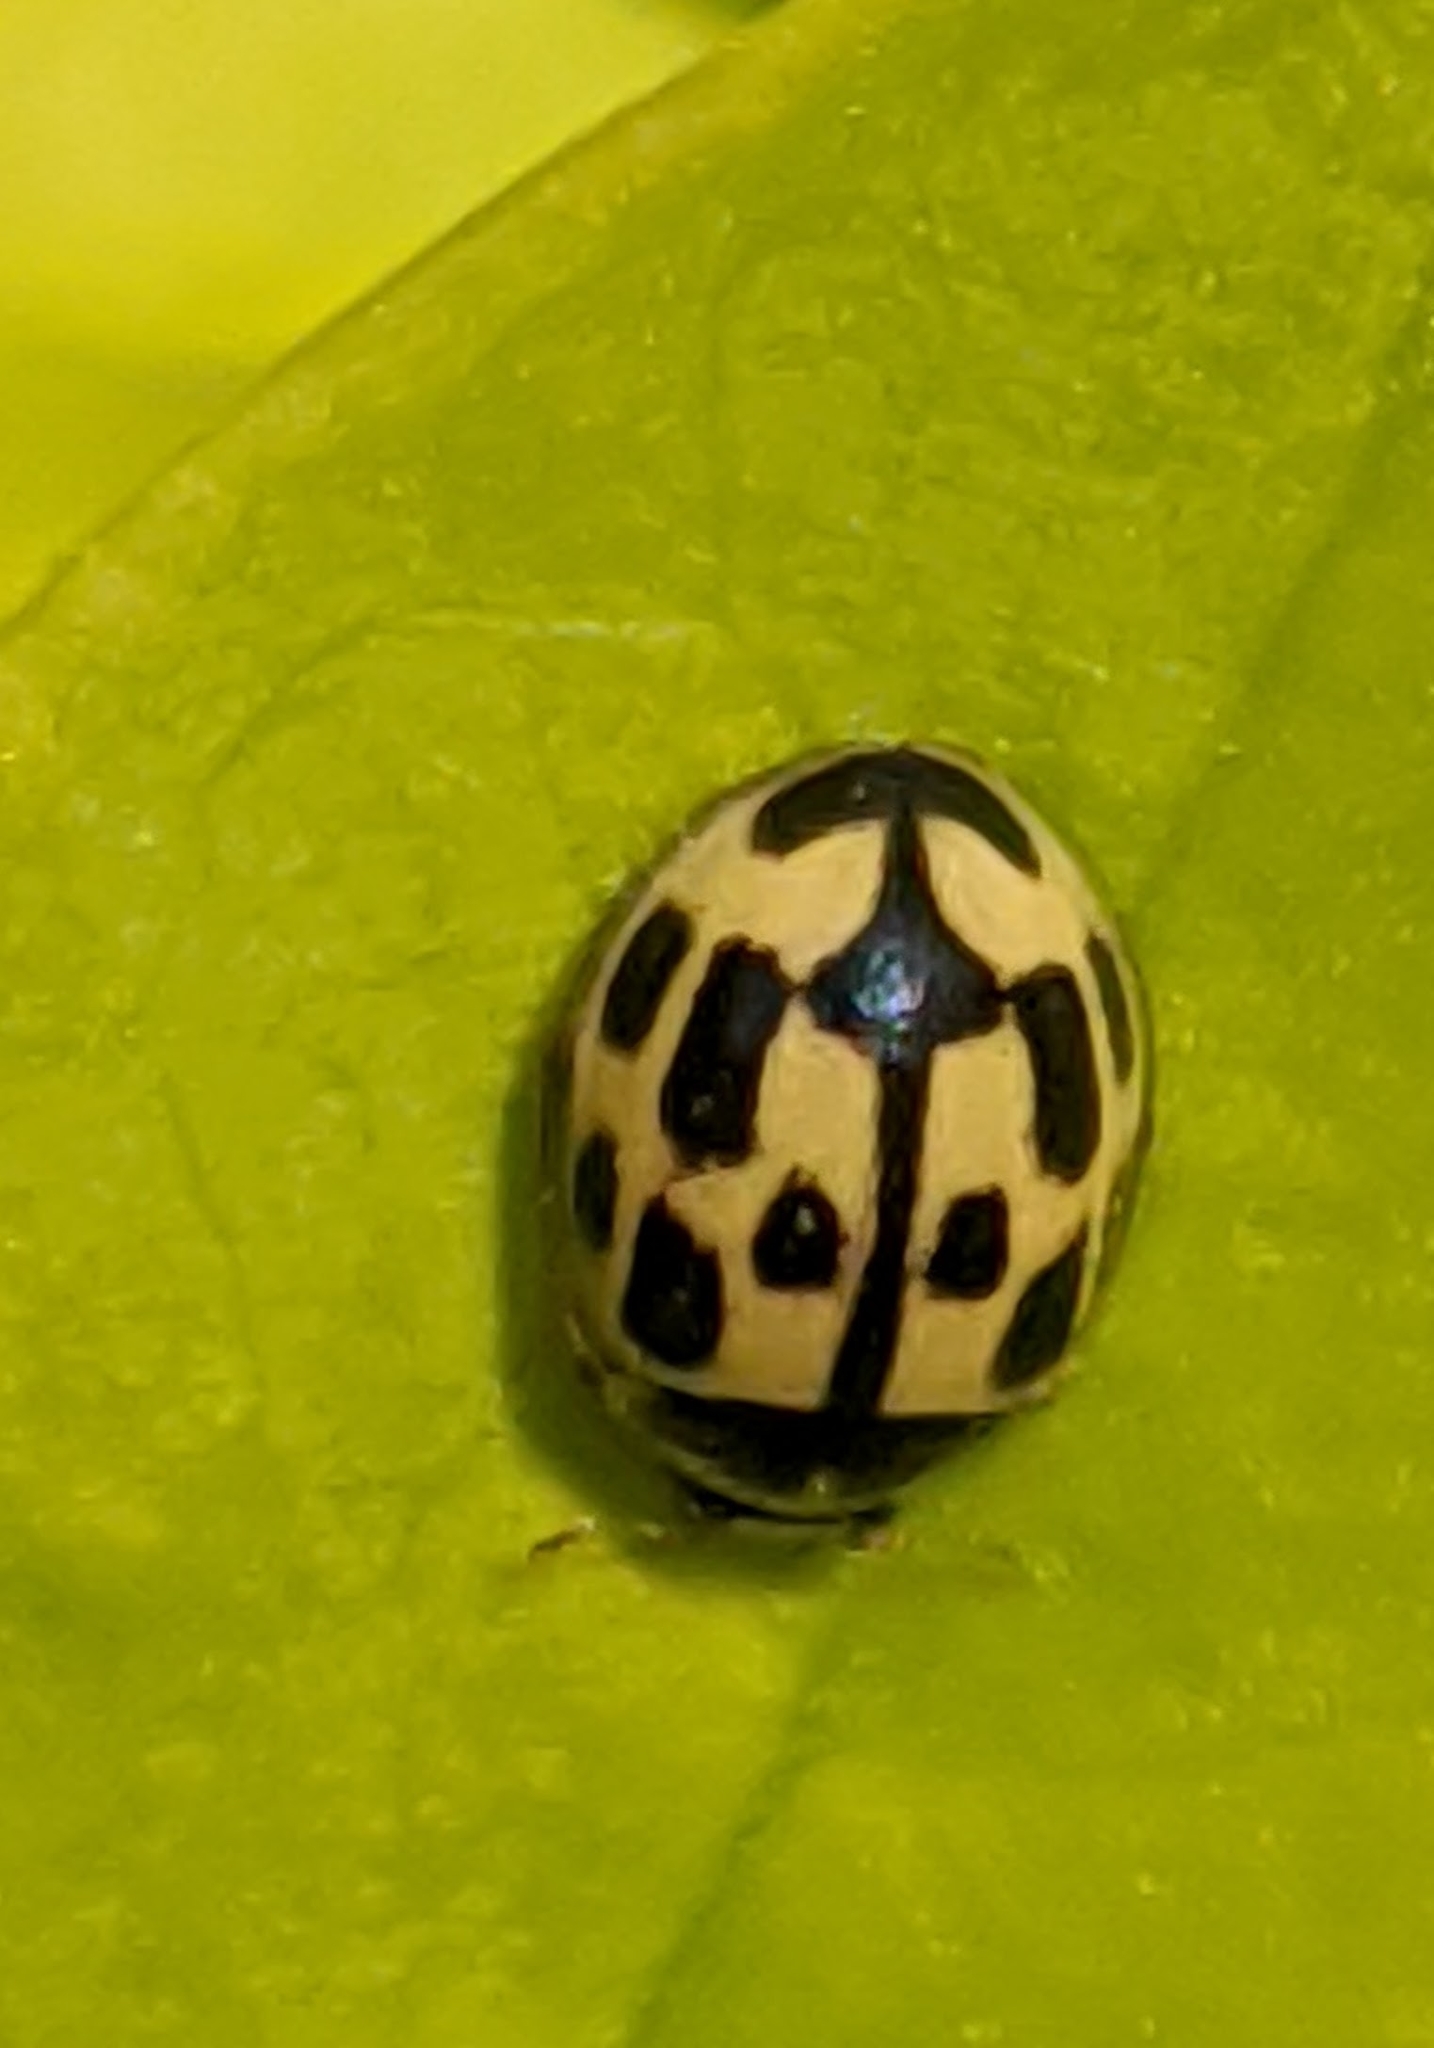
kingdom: Animalia
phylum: Arthropoda
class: Insecta
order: Coleoptera
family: Coccinellidae
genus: Propylaea
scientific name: Propylaea quatuordecimpunctata
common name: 14-spotted ladybird beetle
